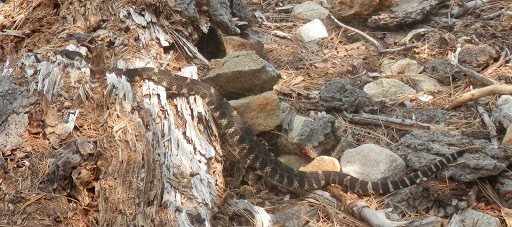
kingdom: Animalia
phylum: Chordata
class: Squamata
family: Viperidae
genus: Crotalus
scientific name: Crotalus oreganus
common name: Abyssus
